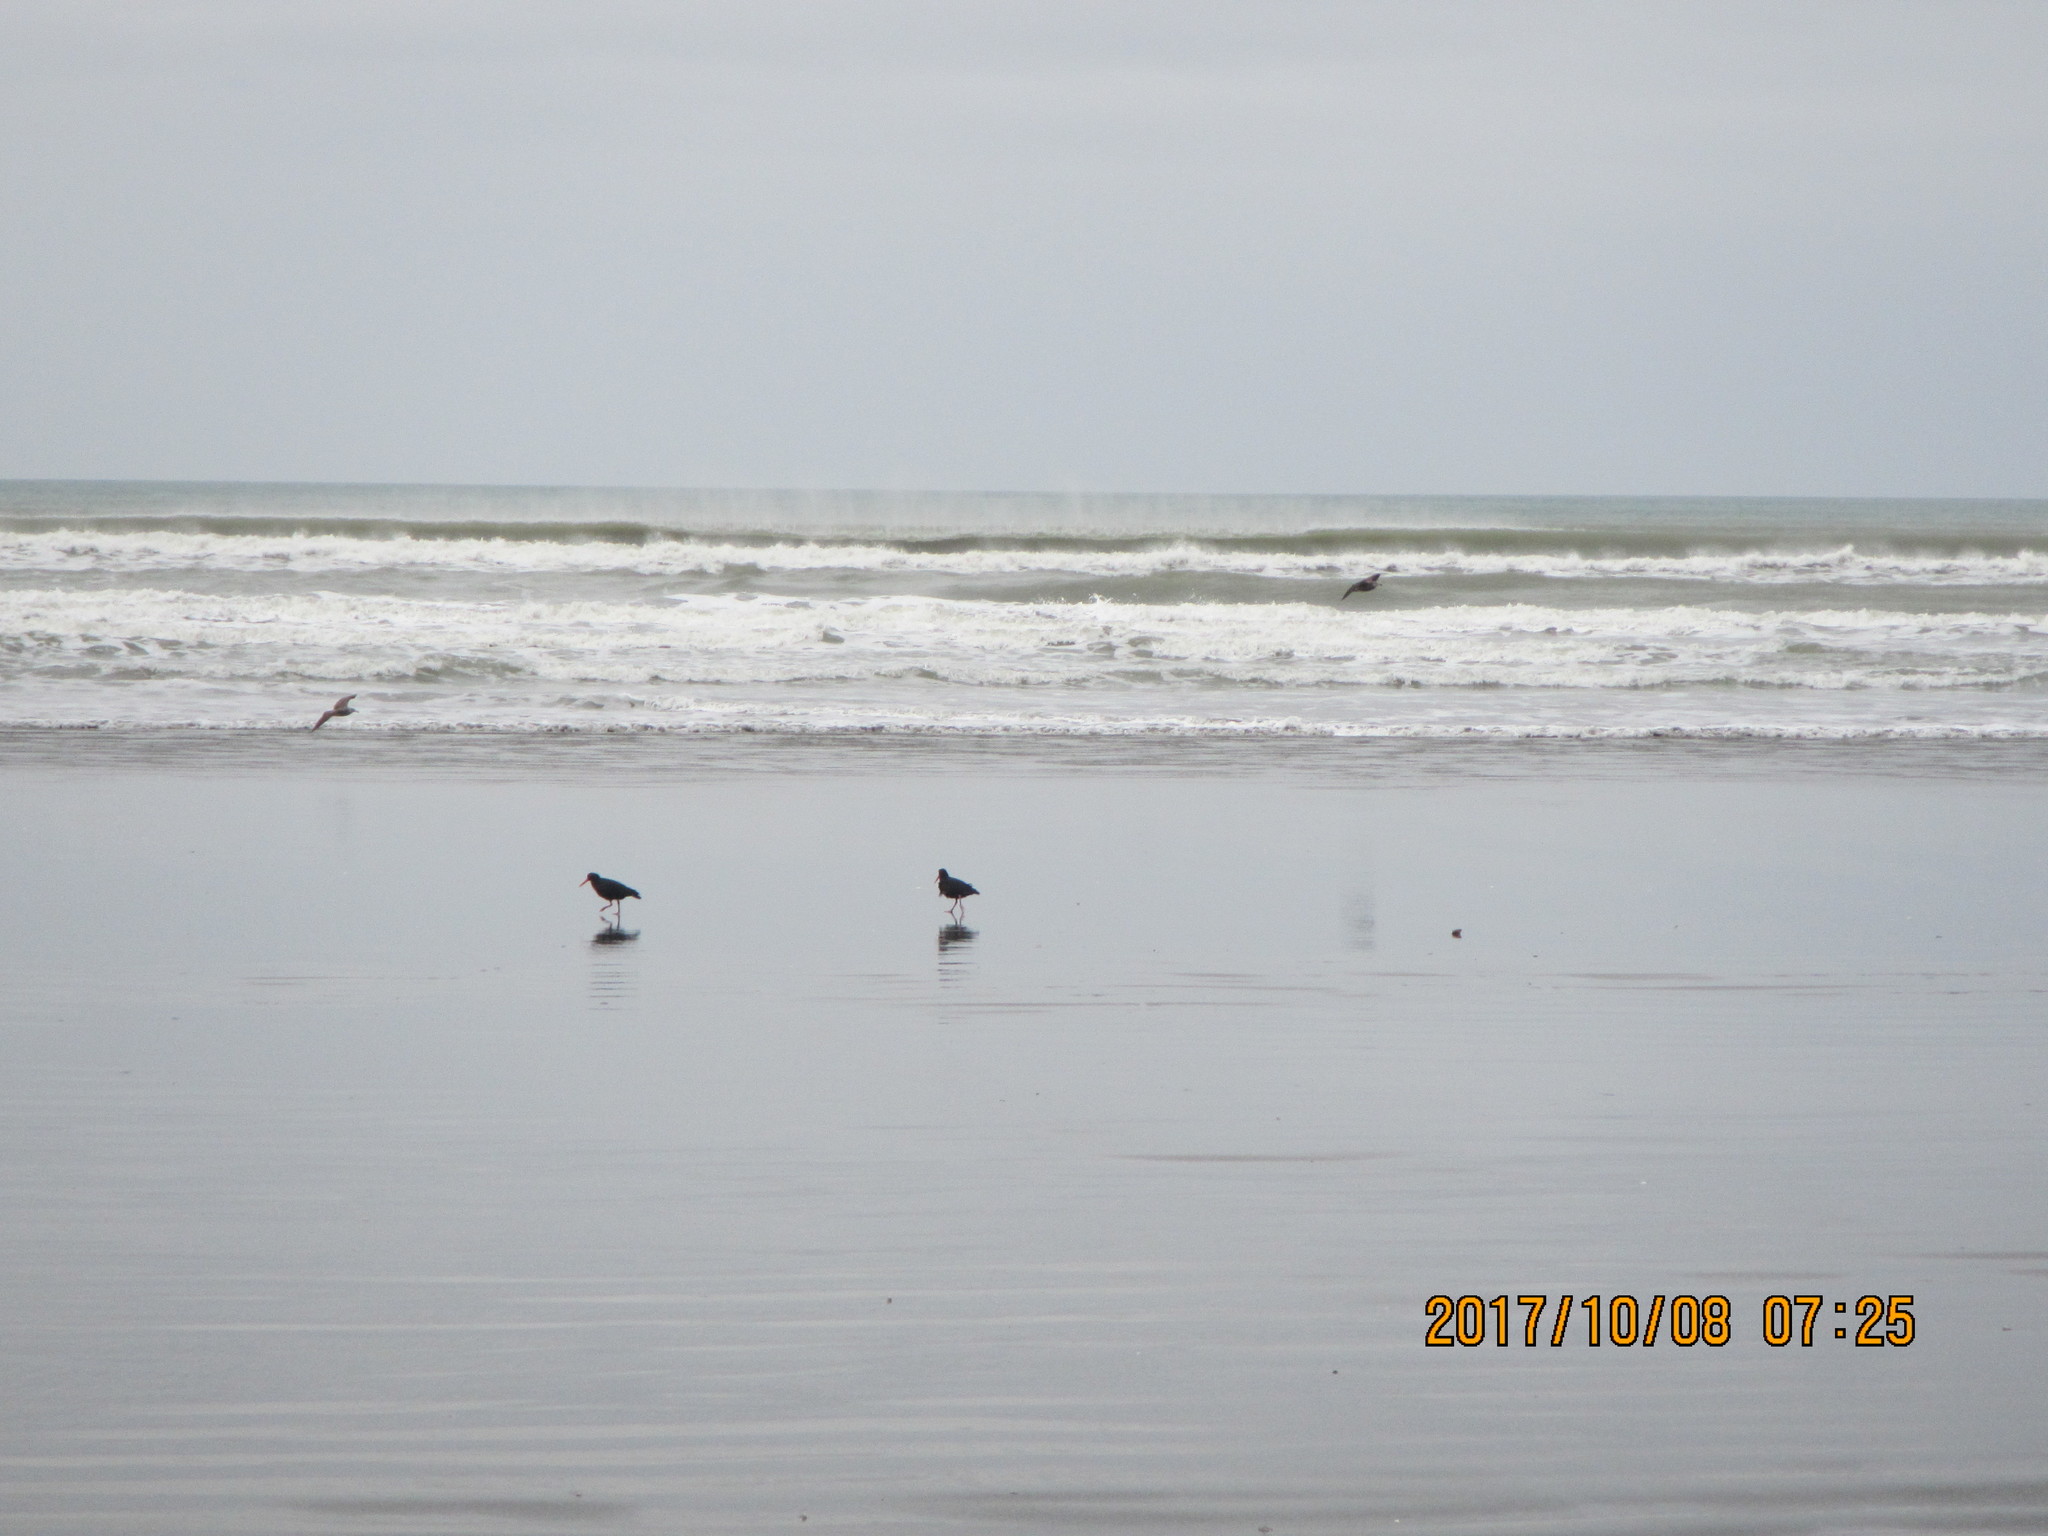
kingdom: Animalia
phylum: Chordata
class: Aves
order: Charadriiformes
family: Haematopodidae
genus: Haematopus
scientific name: Haematopus unicolor
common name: Variable oystercatcher
